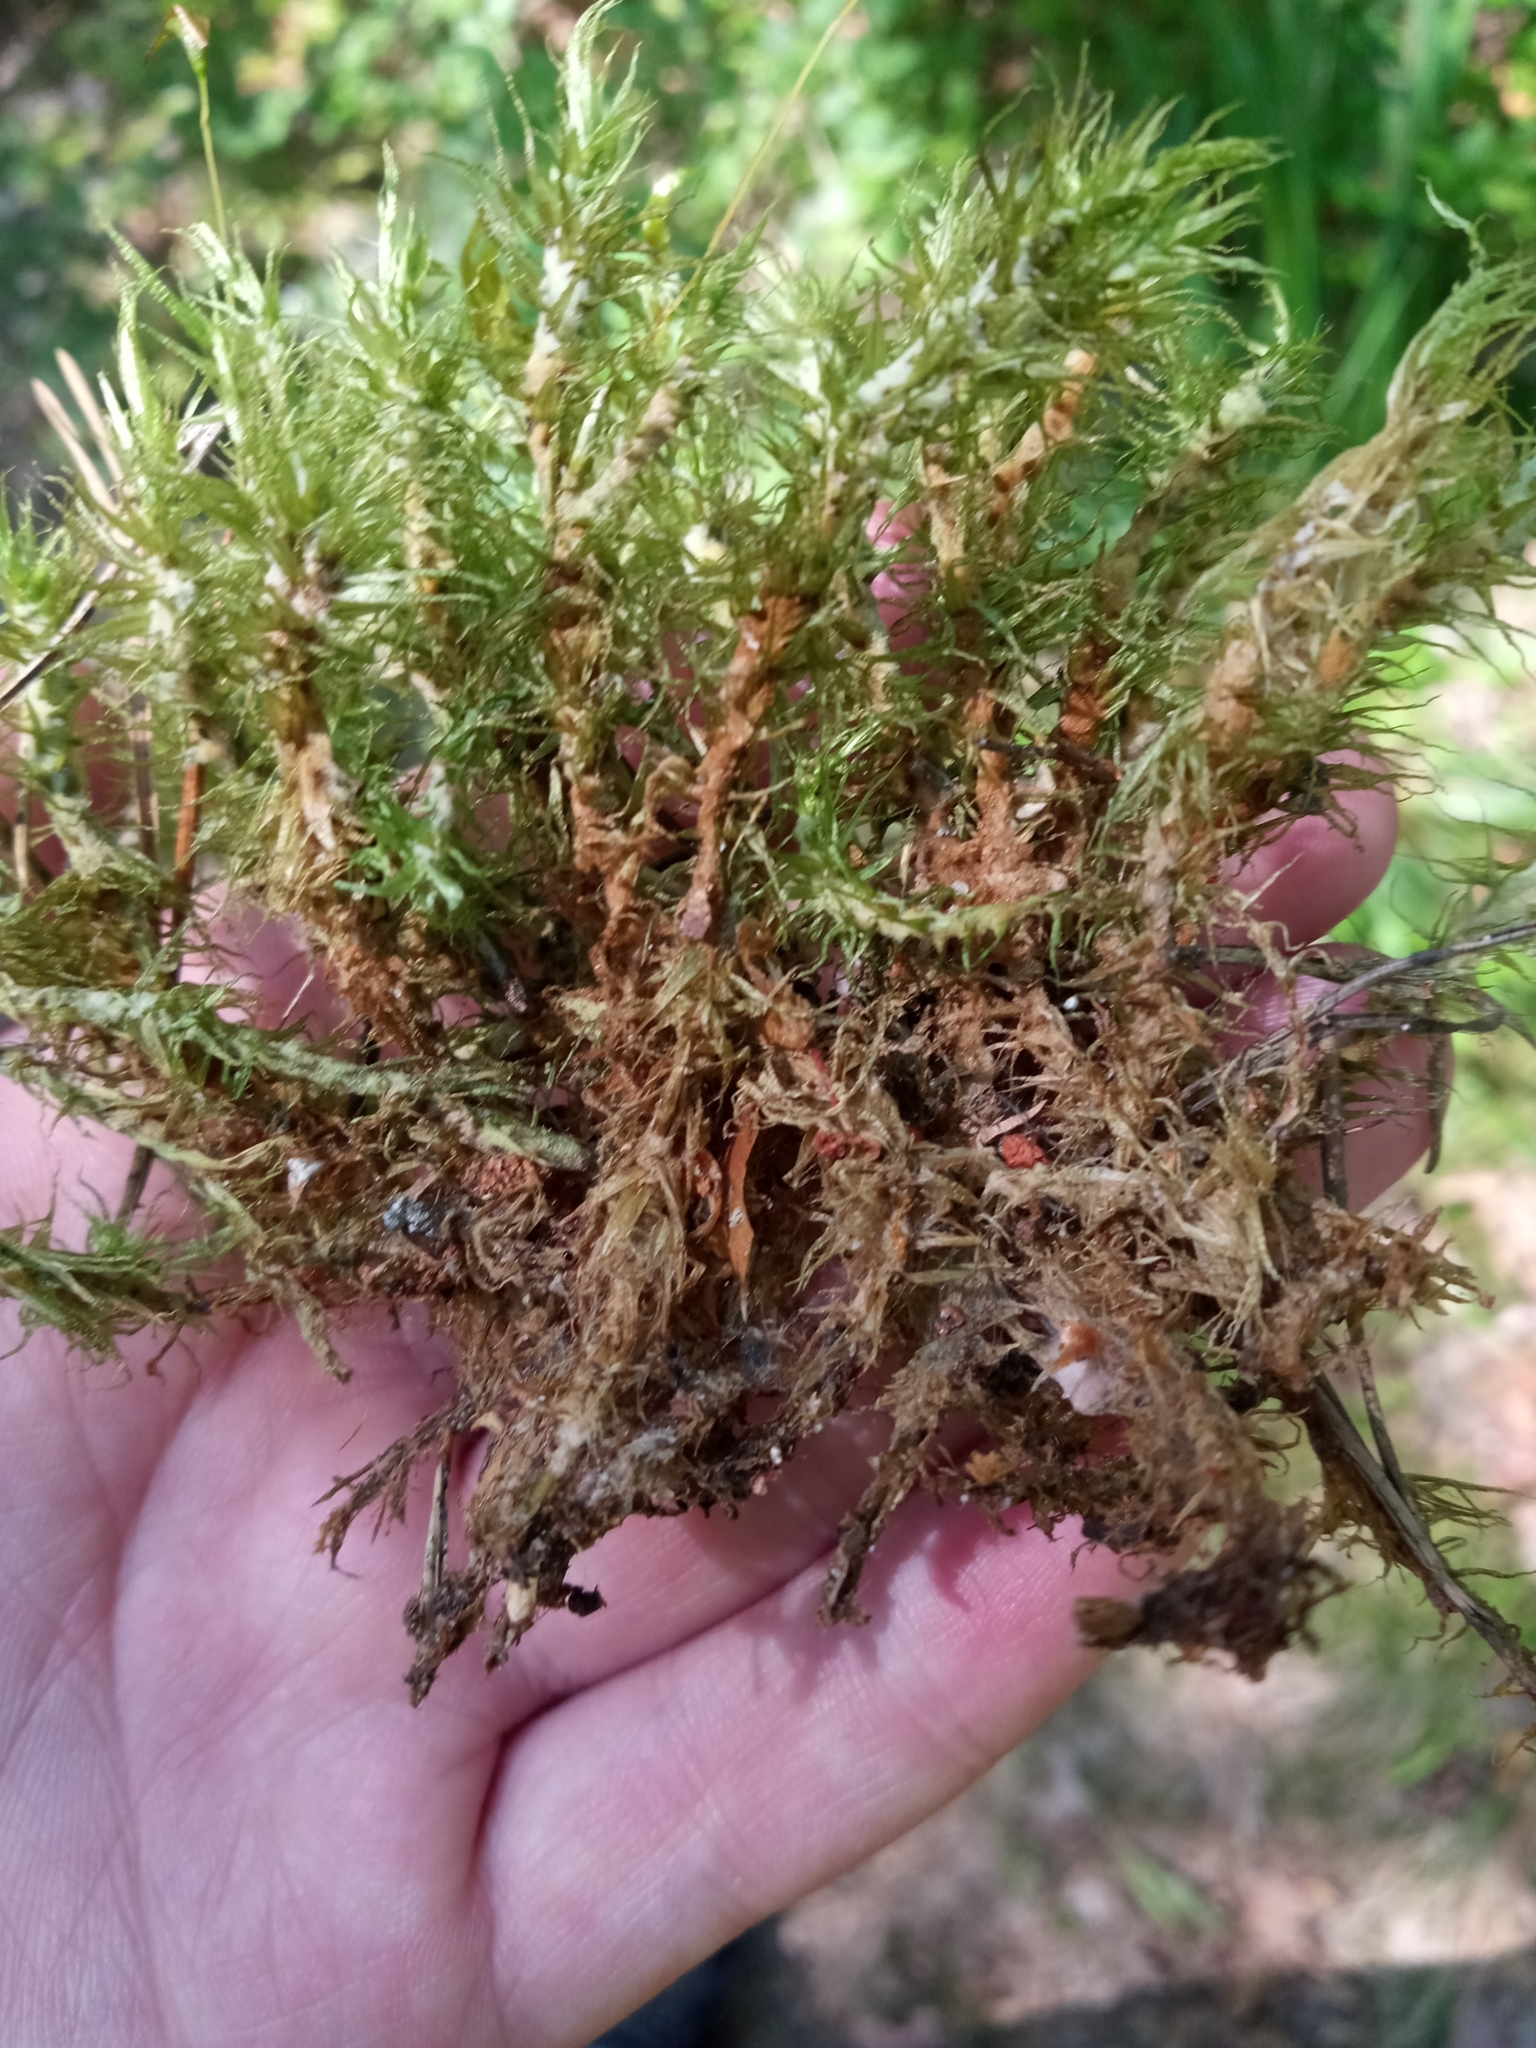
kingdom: Plantae
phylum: Bryophyta
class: Bryopsida
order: Dicranales
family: Dicranaceae
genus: Dicranum
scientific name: Dicranum polysetum
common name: Rugose fork-moss
